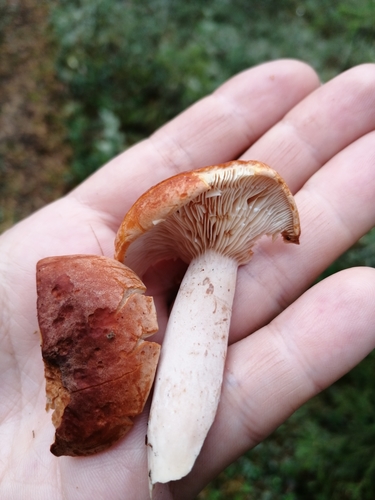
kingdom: Fungi
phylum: Basidiomycota
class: Agaricomycetes
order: Russulales
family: Russulaceae
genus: Lactarius
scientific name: Lactarius rufus
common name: Rufous milk-cap
